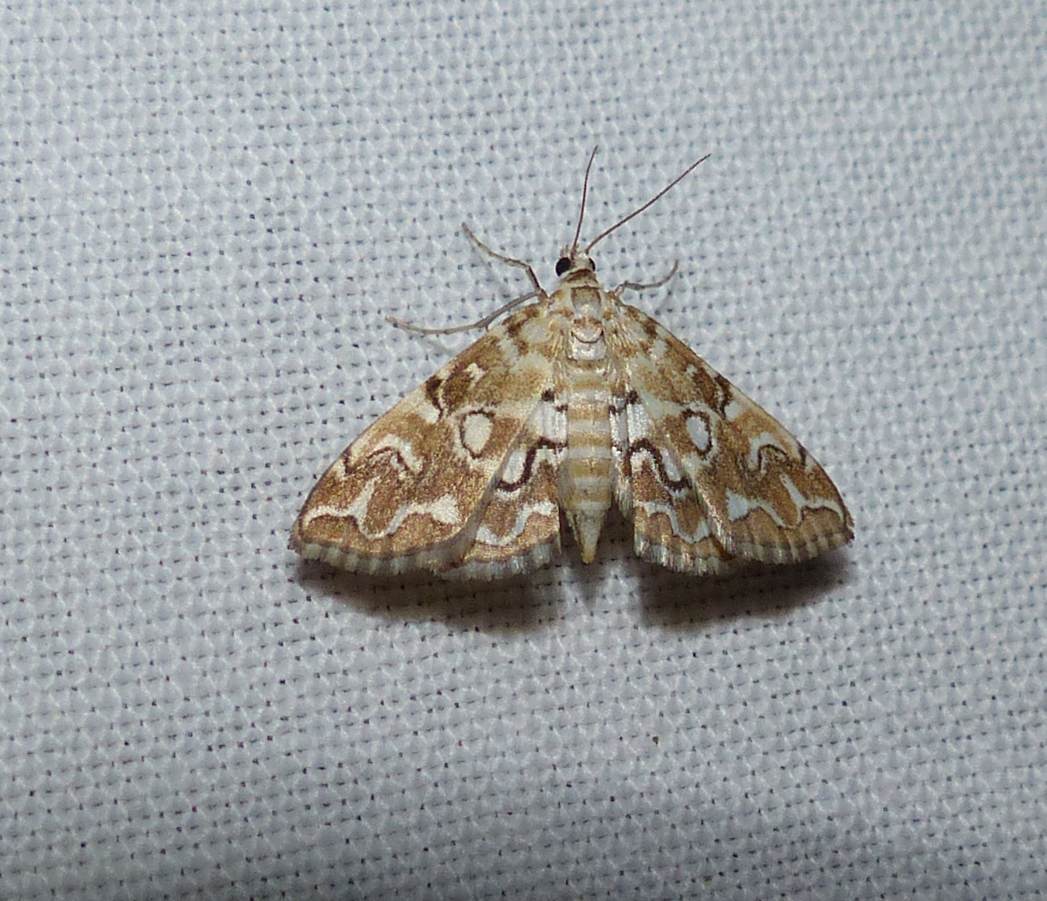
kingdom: Animalia
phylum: Arthropoda
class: Insecta
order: Lepidoptera
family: Crambidae
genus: Elophila
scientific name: Elophila icciusalis
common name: Pondside pyralid moth
